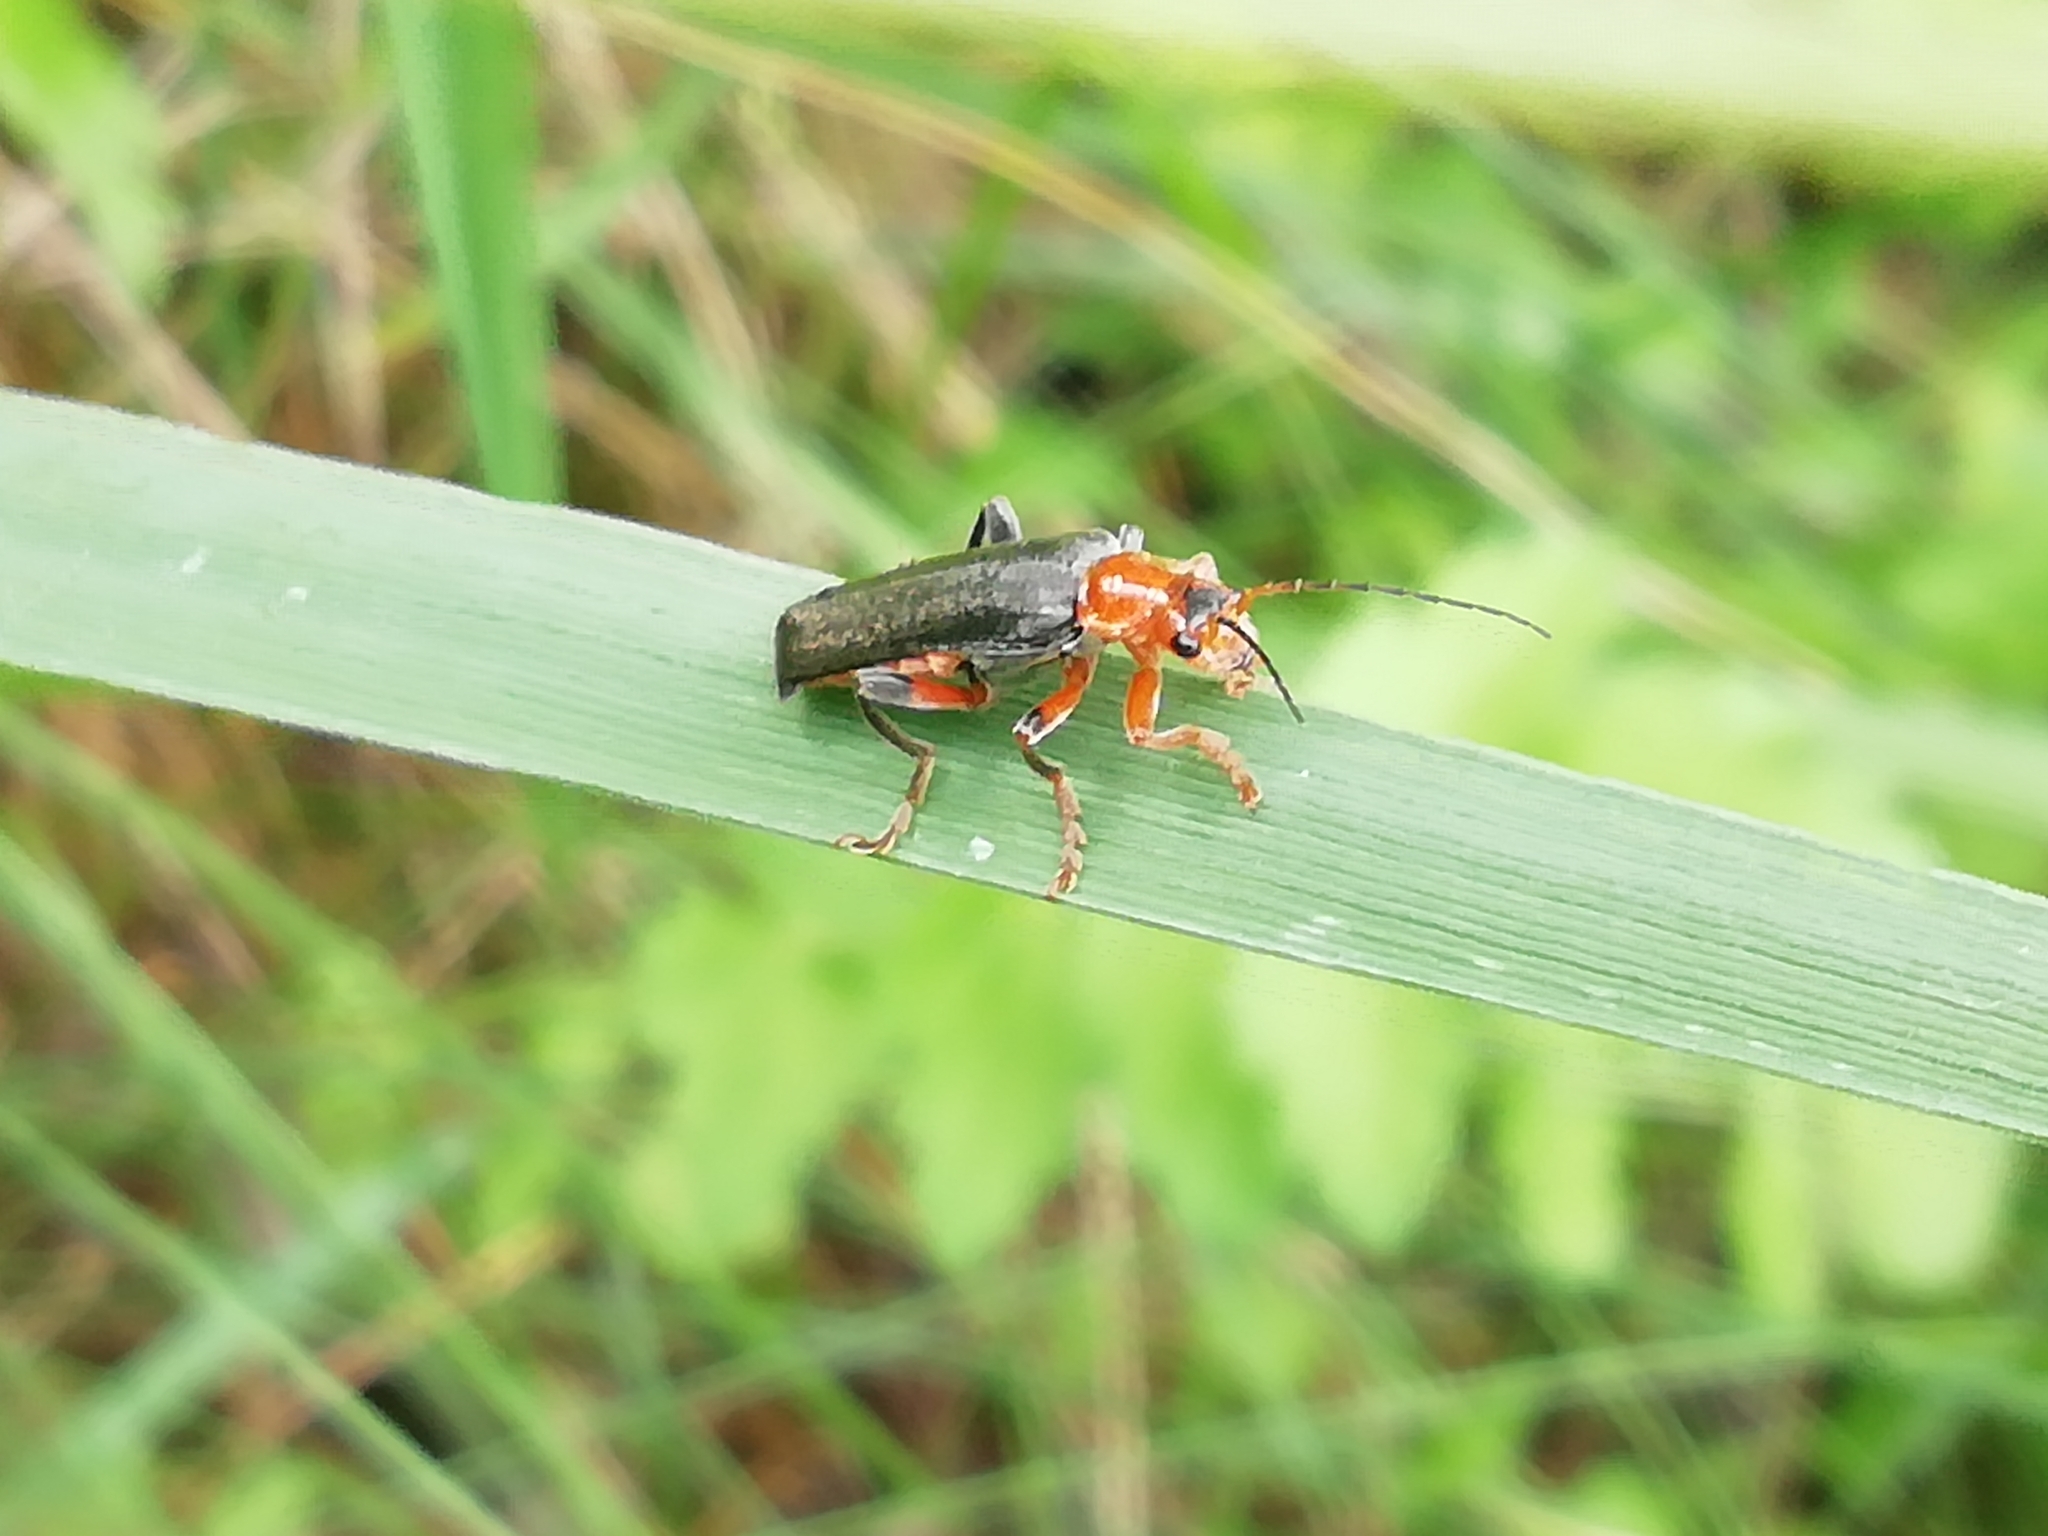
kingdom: Animalia
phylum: Arthropoda
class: Insecta
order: Coleoptera
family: Cantharidae
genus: Cantharis
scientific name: Cantharis livida
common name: Livid soldier beetle
